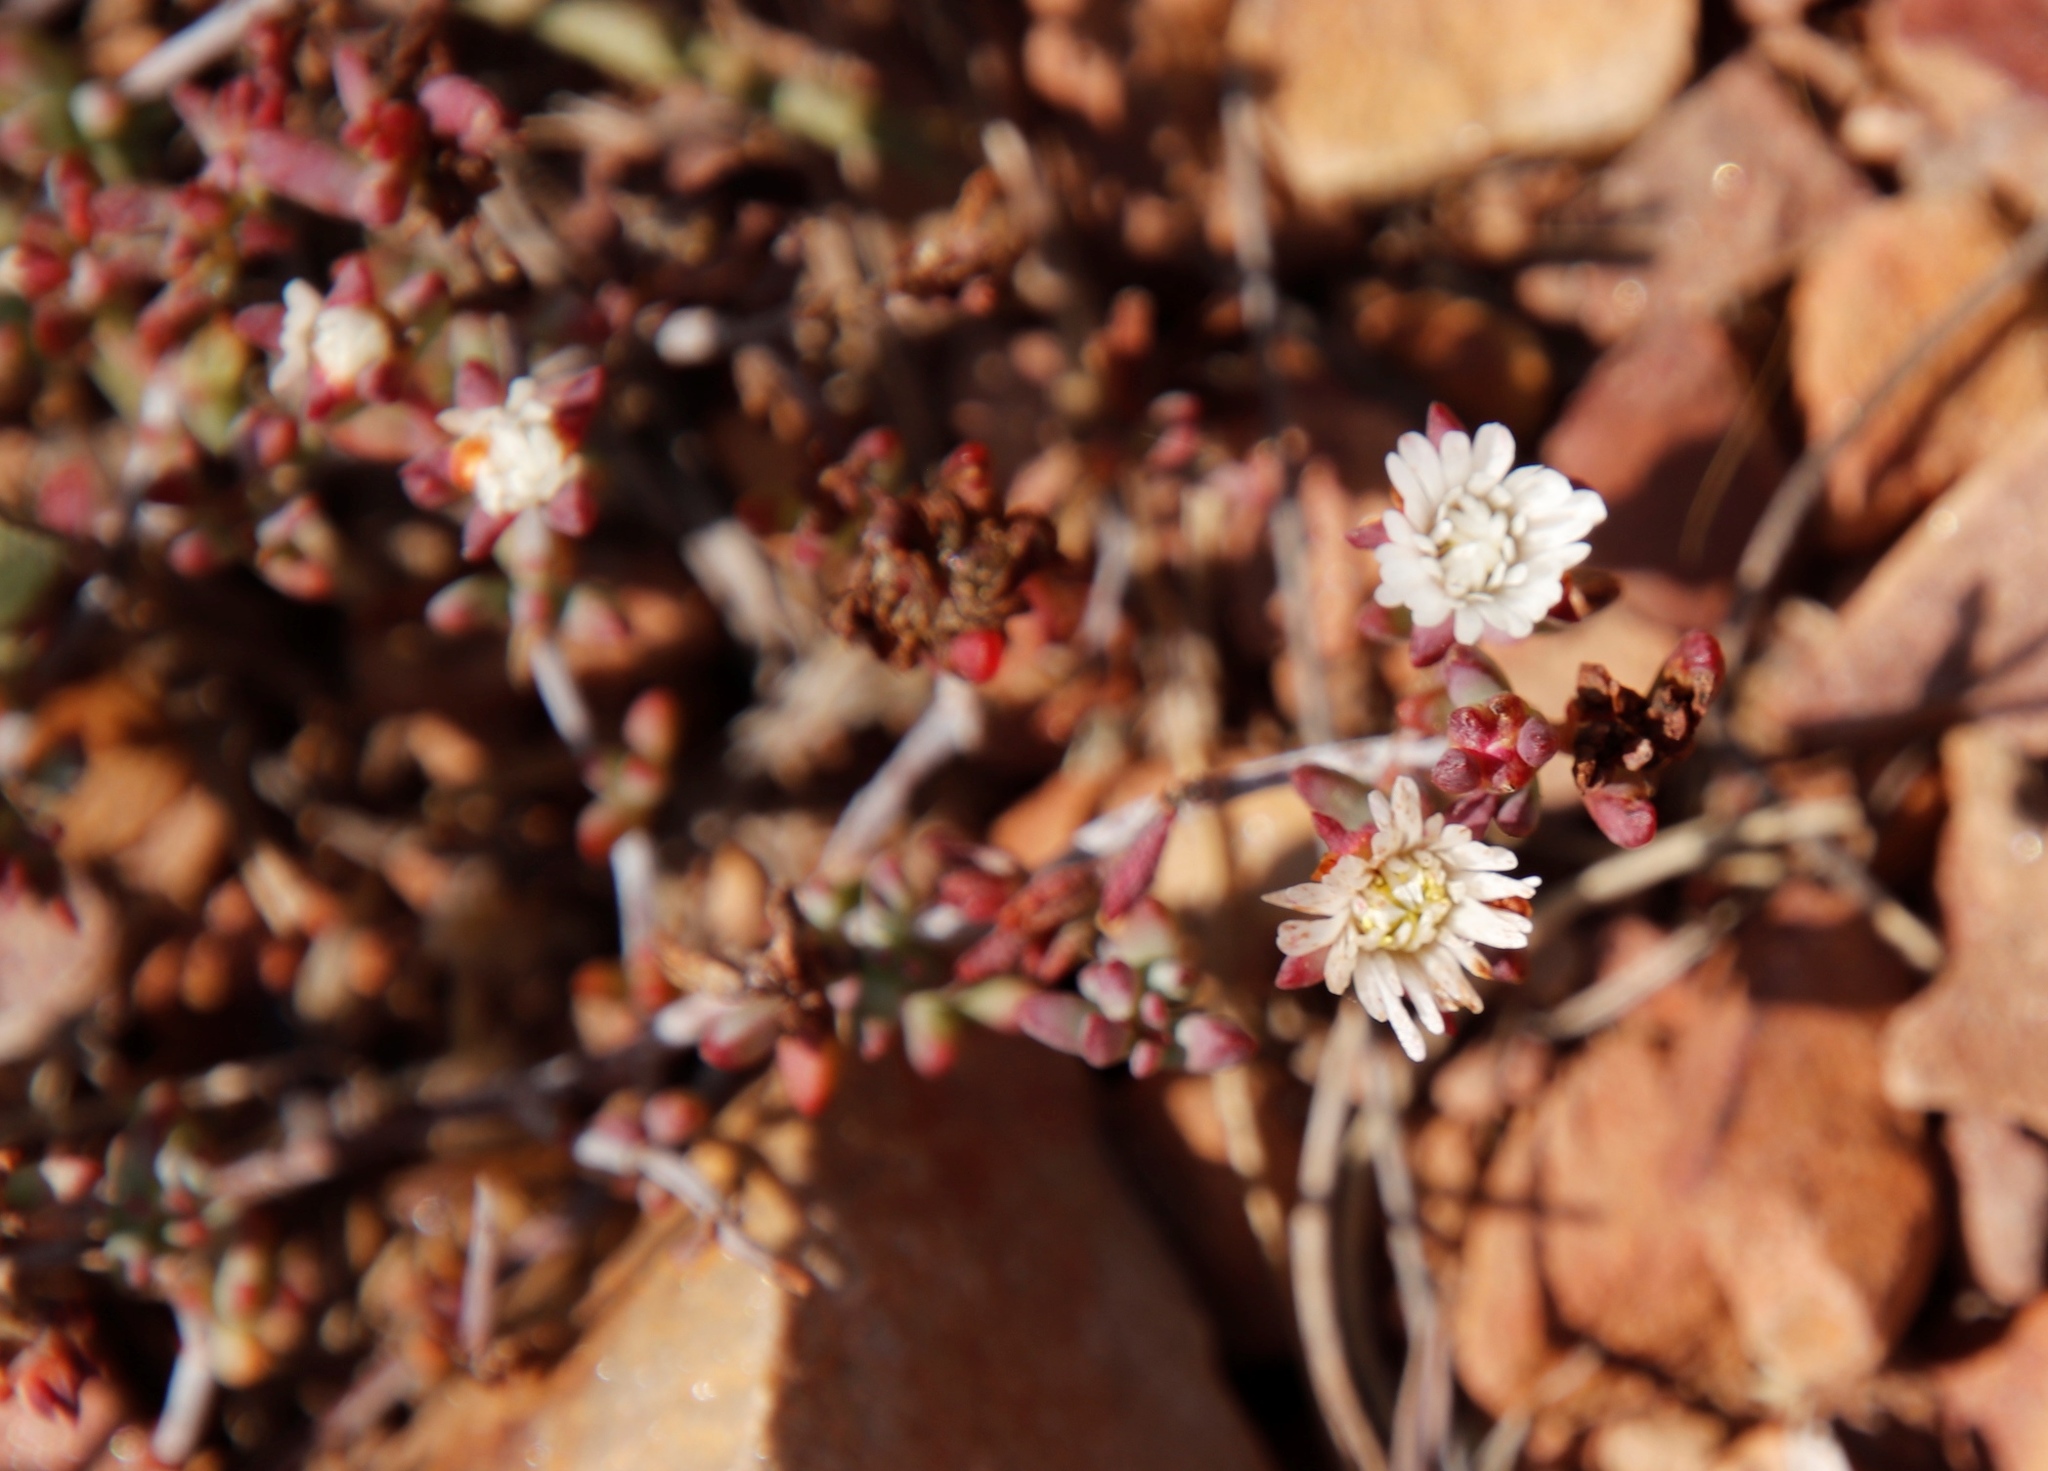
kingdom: Plantae
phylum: Tracheophyta
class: Magnoliopsida
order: Caryophyllales
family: Aizoaceae
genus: Lampranthus
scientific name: Lampranthus falcatus
